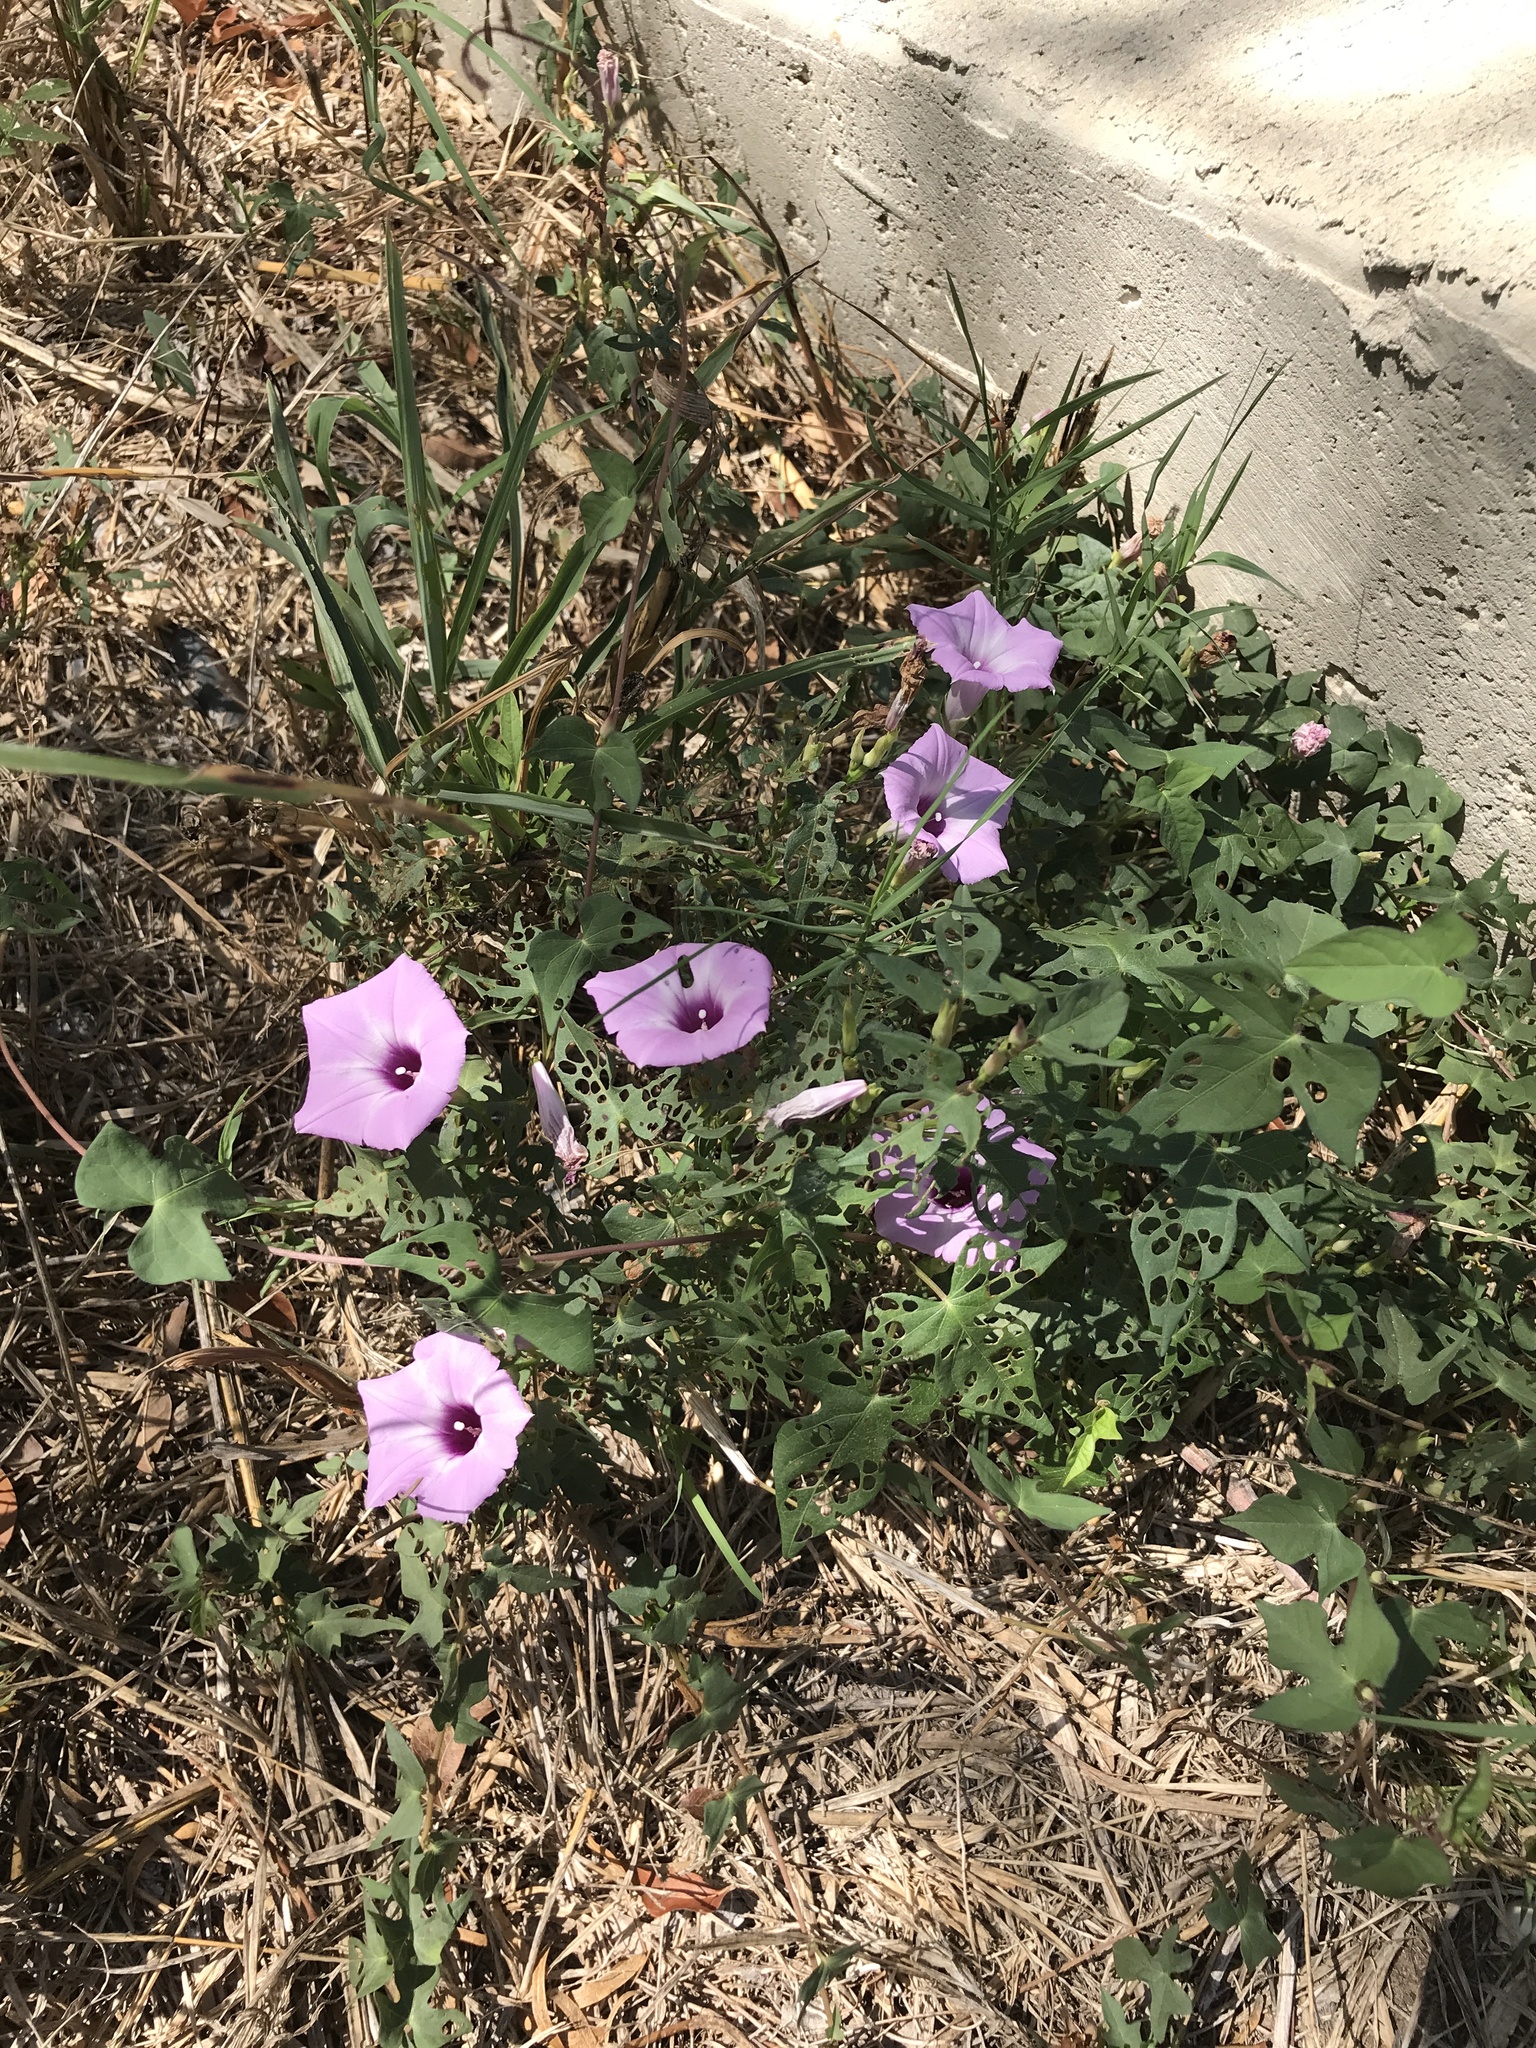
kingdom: Plantae
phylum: Tracheophyta
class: Magnoliopsida
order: Solanales
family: Convolvulaceae
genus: Ipomoea
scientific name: Ipomoea cordatotriloba
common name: Cotton morning glory
